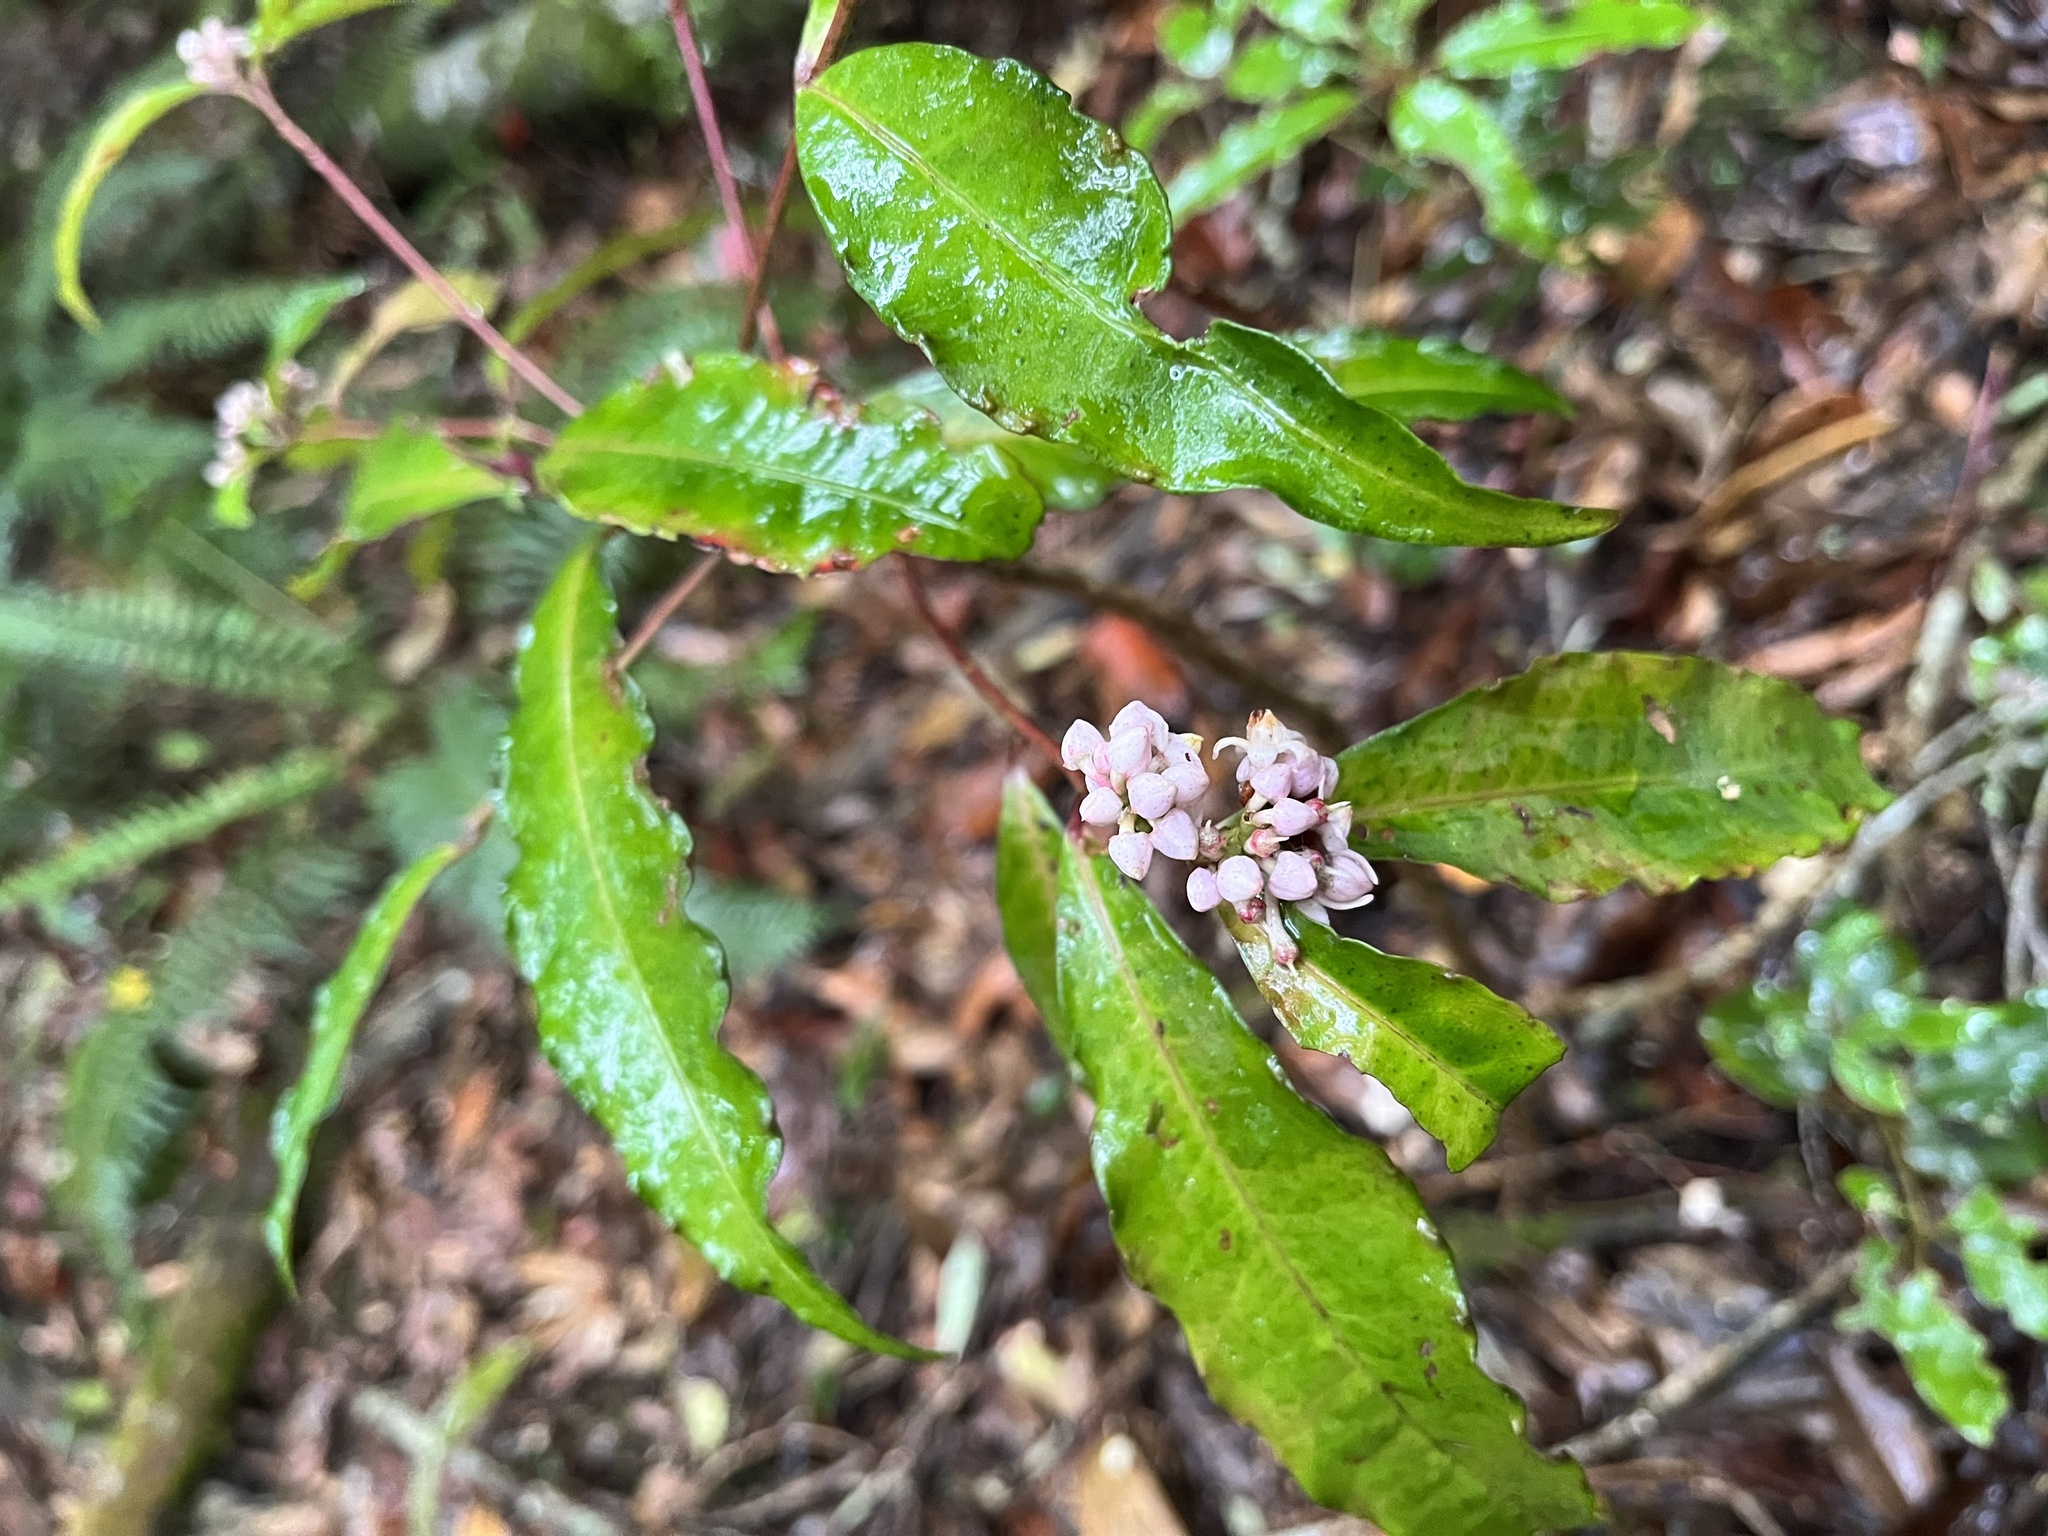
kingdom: Plantae
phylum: Tracheophyta
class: Magnoliopsida
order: Ericales
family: Primulaceae
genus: Ardisia
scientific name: Ardisia crenata
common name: Hen's eyes
